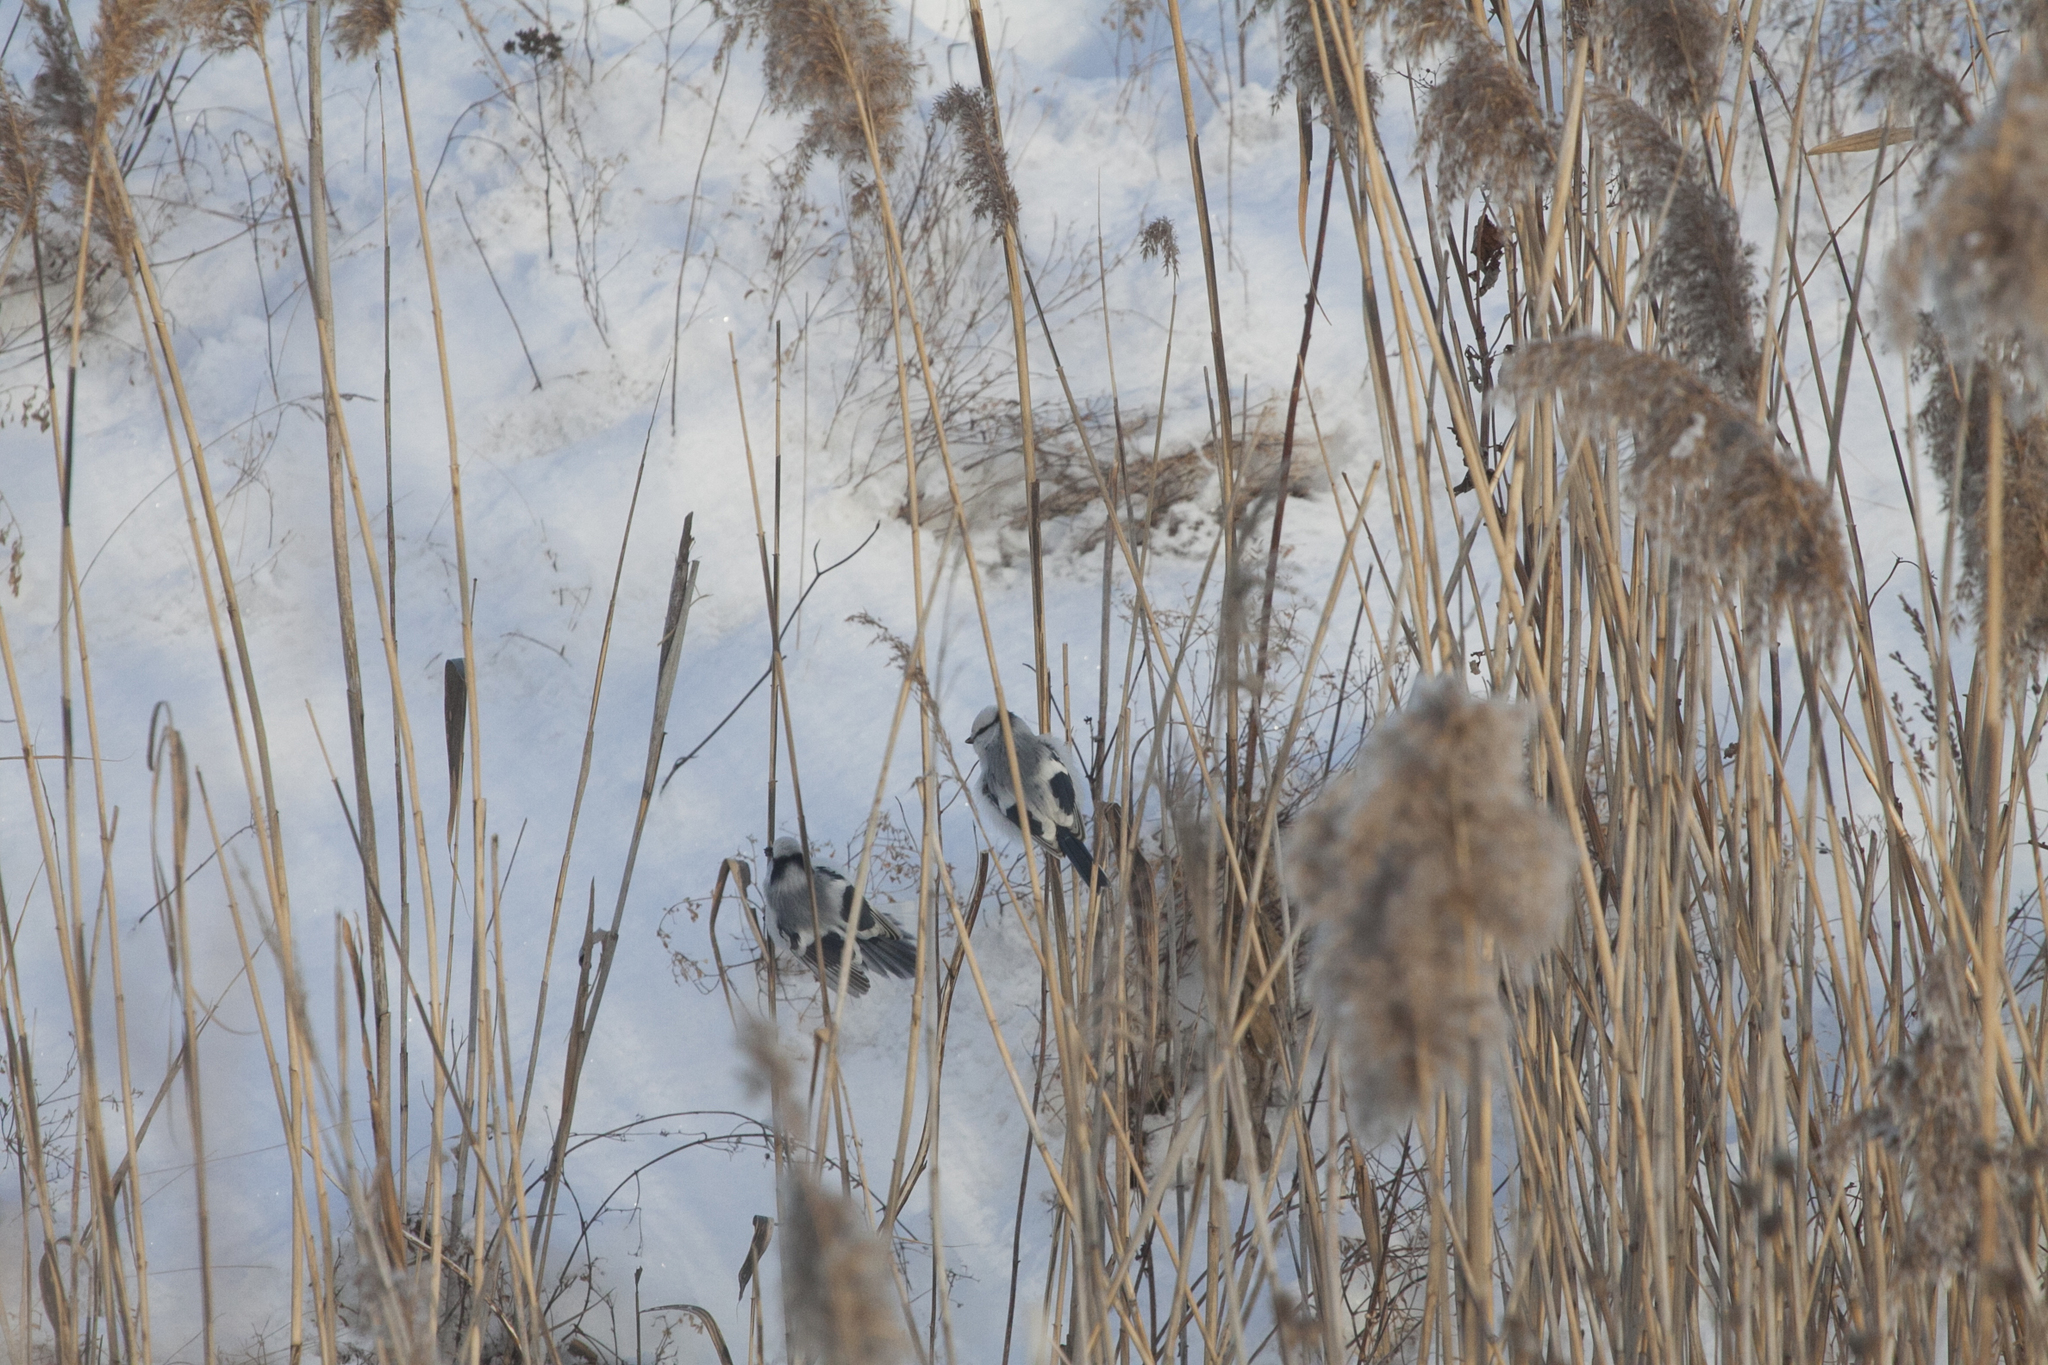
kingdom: Animalia
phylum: Chordata
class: Aves
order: Passeriformes
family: Paridae
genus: Cyanistes
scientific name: Cyanistes cyanus
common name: Azure tit
